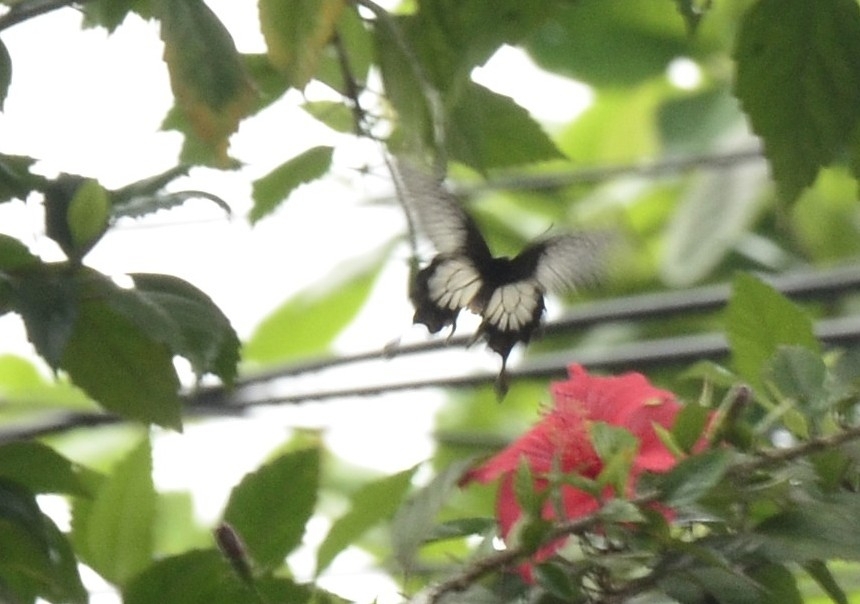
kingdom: Animalia
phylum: Arthropoda
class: Insecta
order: Lepidoptera
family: Papilionidae
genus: Pachliopta
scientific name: Pachliopta pandiyana
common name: Malabar rose
